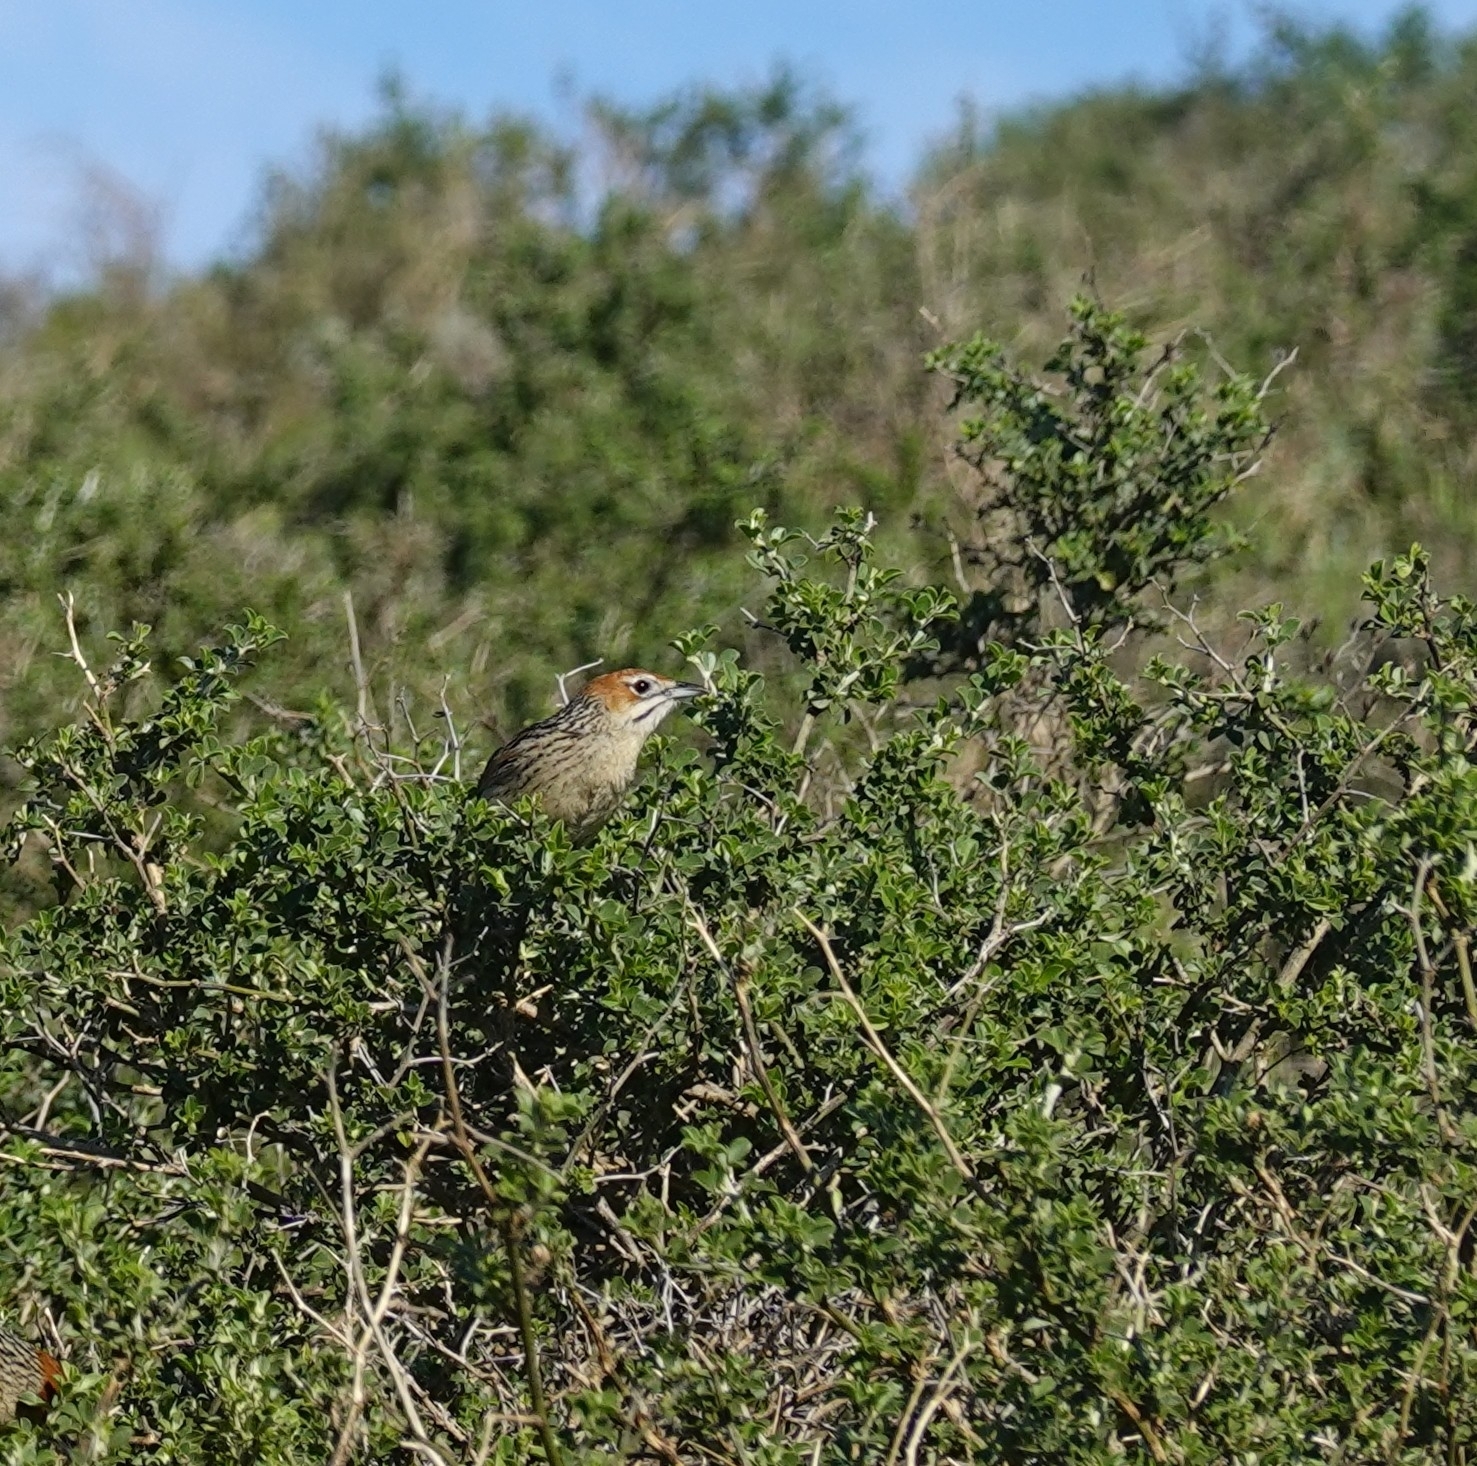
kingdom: Animalia
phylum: Chordata
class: Aves
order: Passeriformes
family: Macrosphenidae
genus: Sphenoeacus
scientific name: Sphenoeacus afer
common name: Cape grassbird
